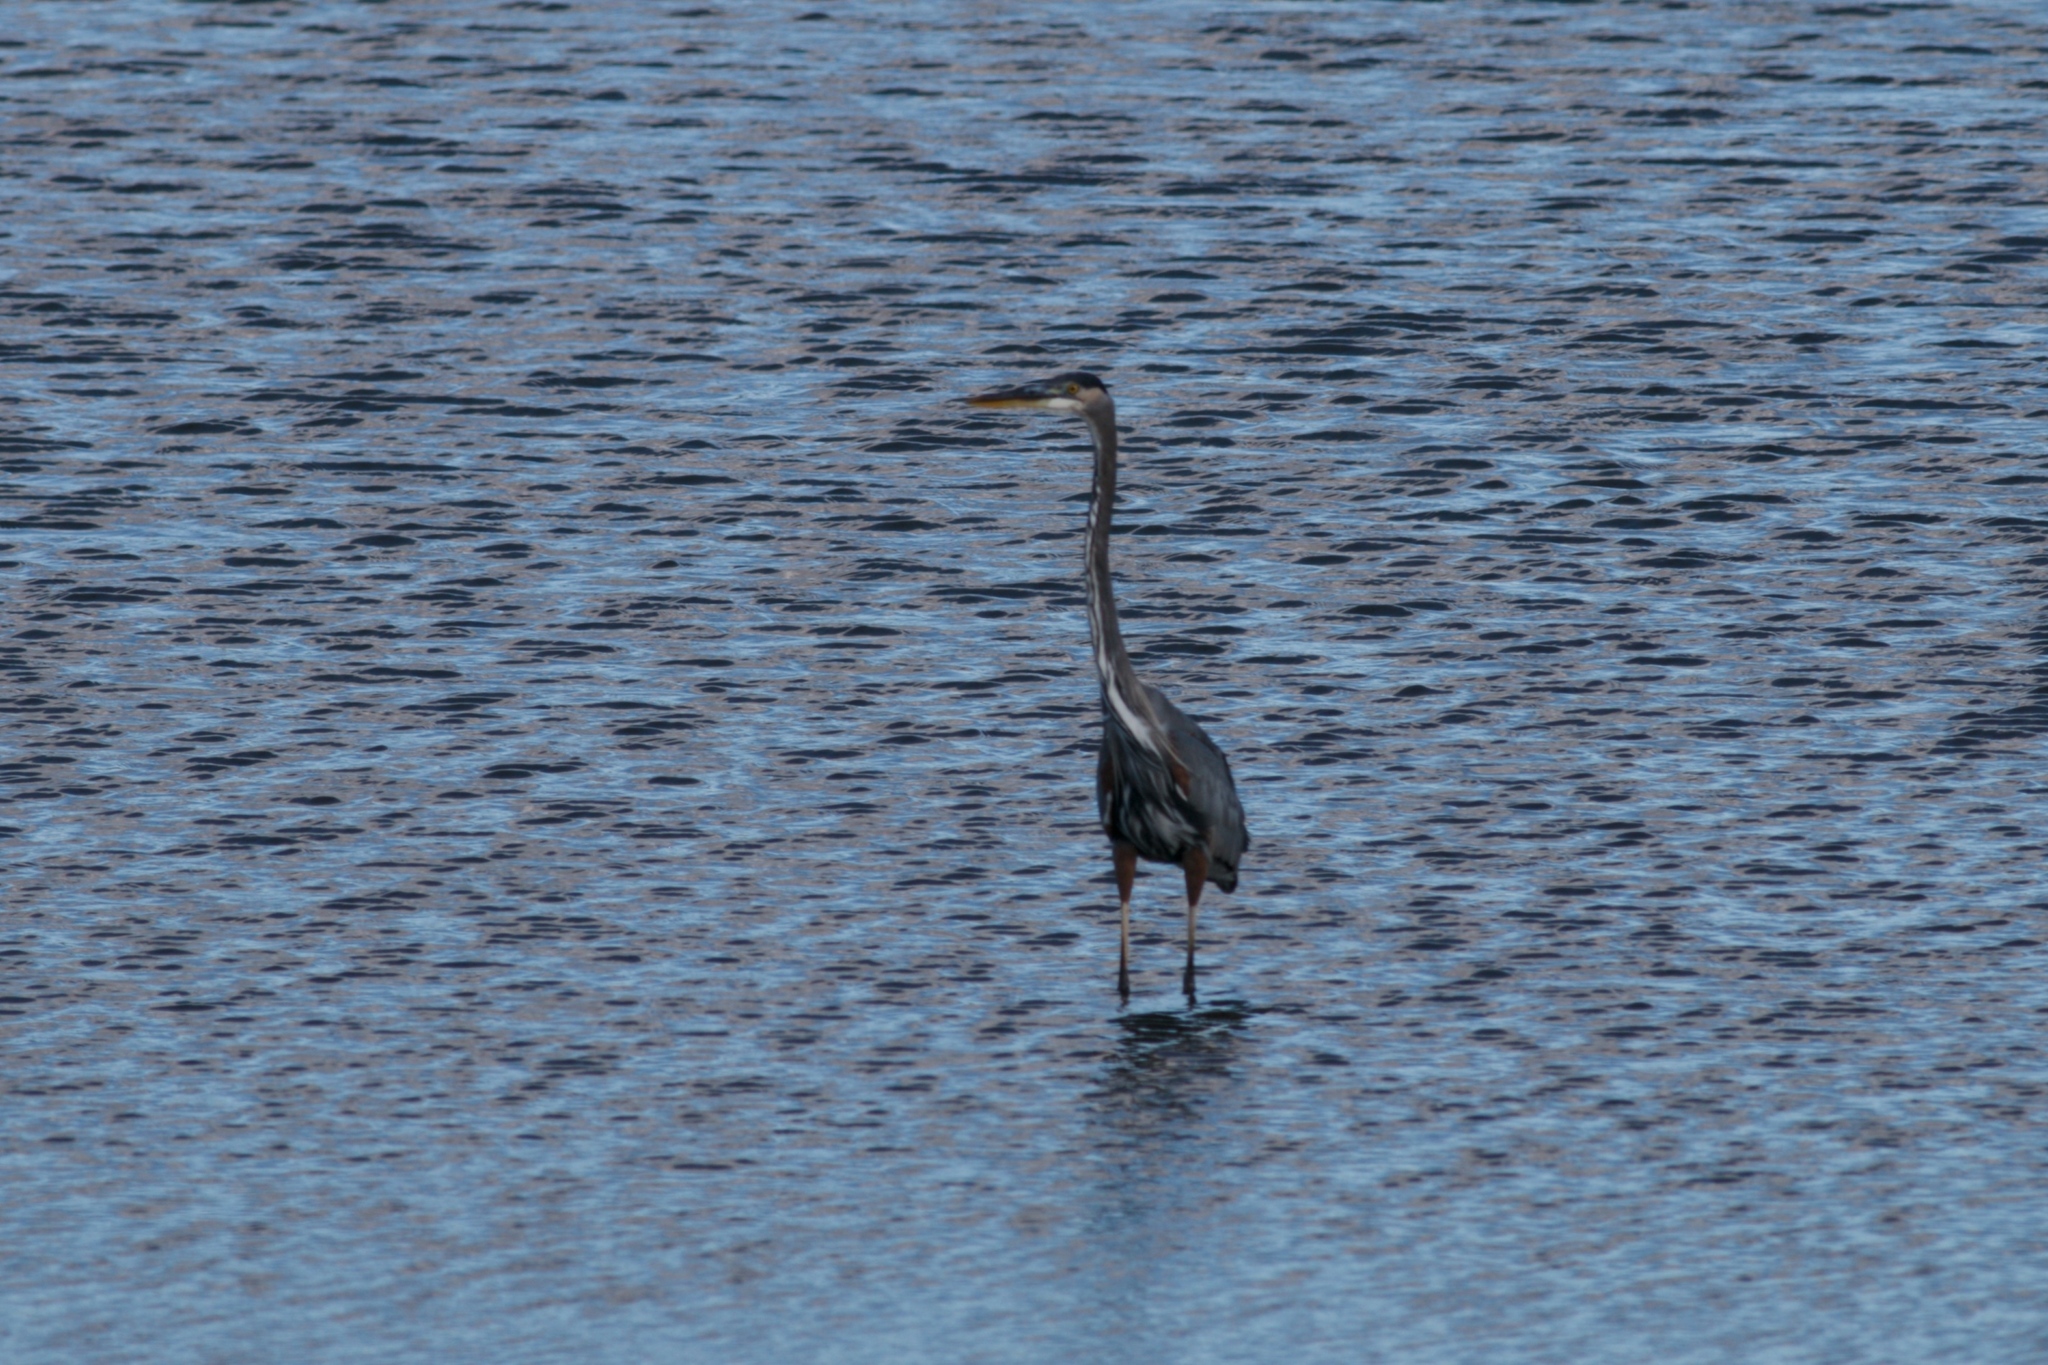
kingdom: Animalia
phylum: Chordata
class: Aves
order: Pelecaniformes
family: Ardeidae
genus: Ardea
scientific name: Ardea herodias
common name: Great blue heron
